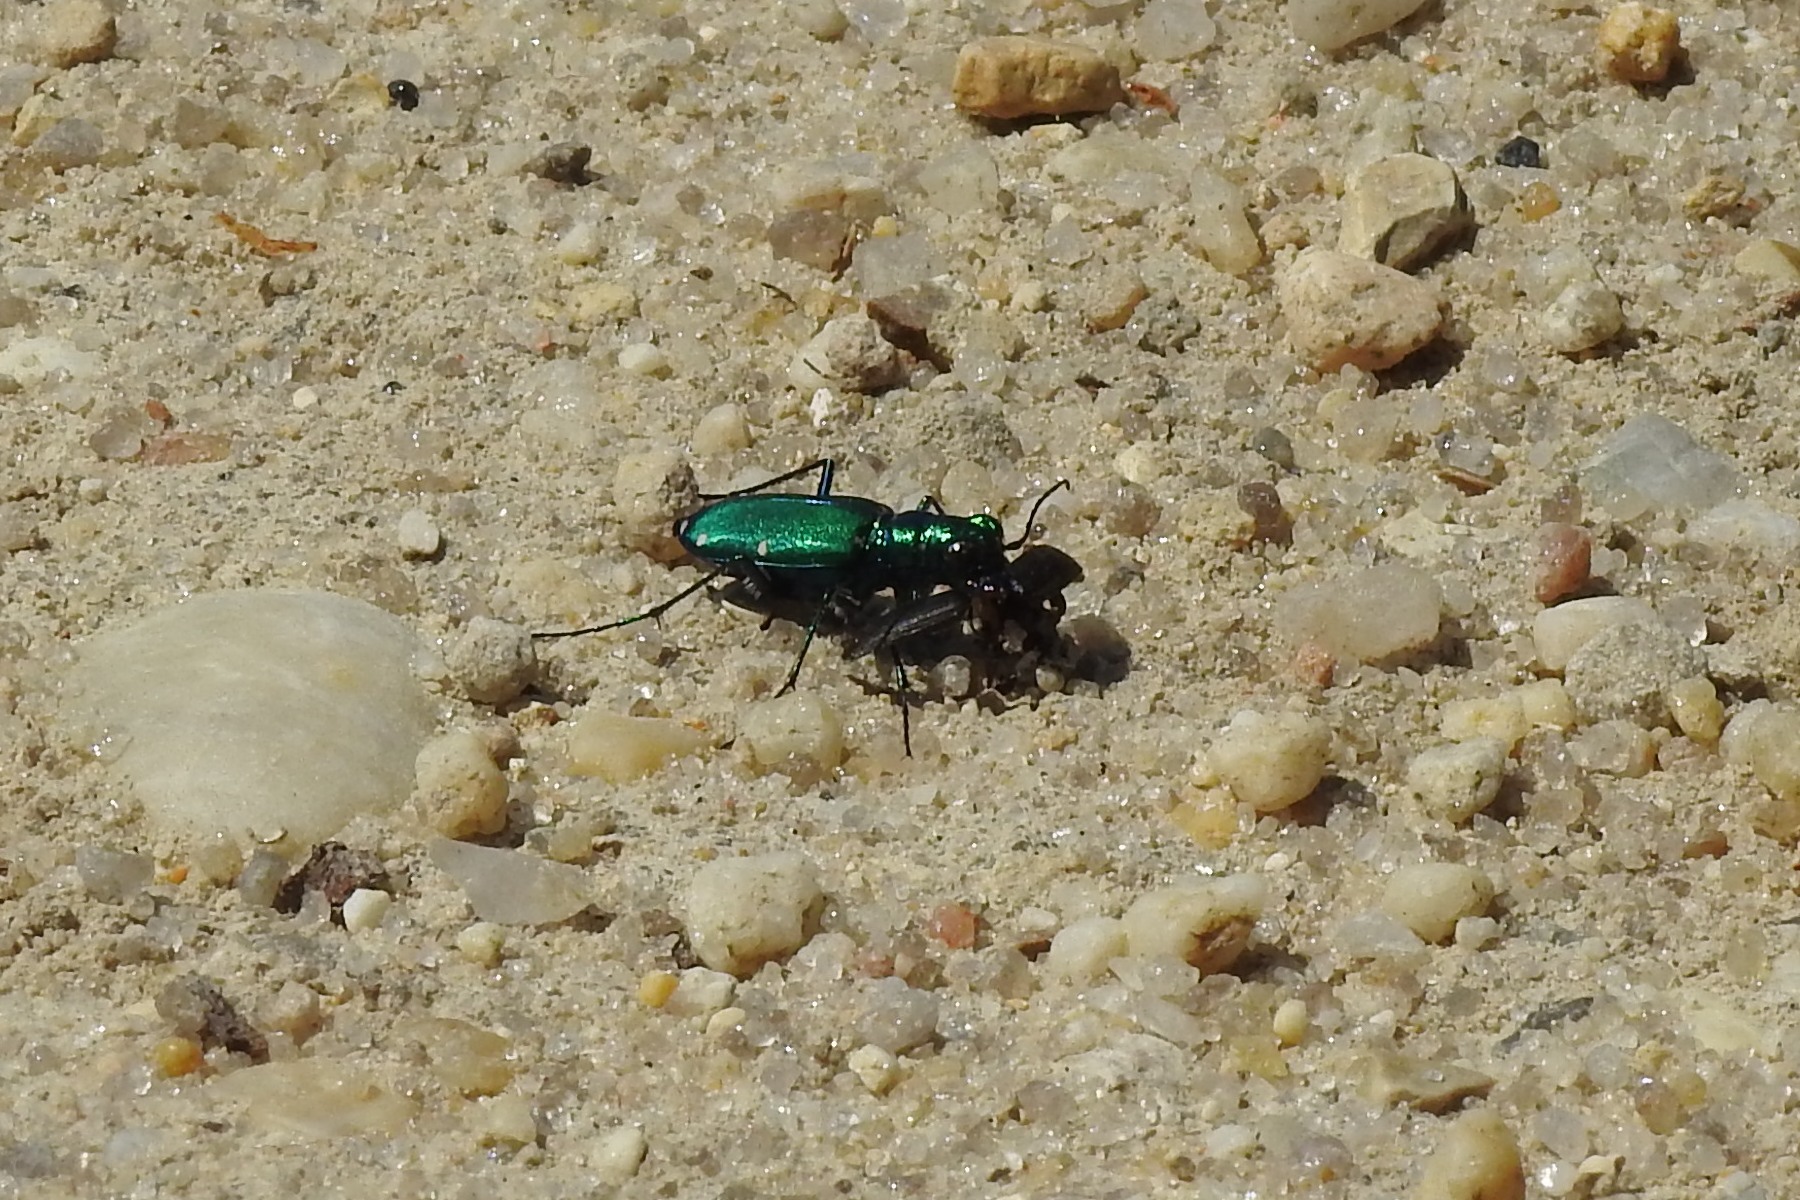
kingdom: Animalia
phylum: Arthropoda
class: Insecta
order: Coleoptera
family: Carabidae
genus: Cicindela
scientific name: Cicindela sexguttata
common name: Six-spotted tiger beetle
